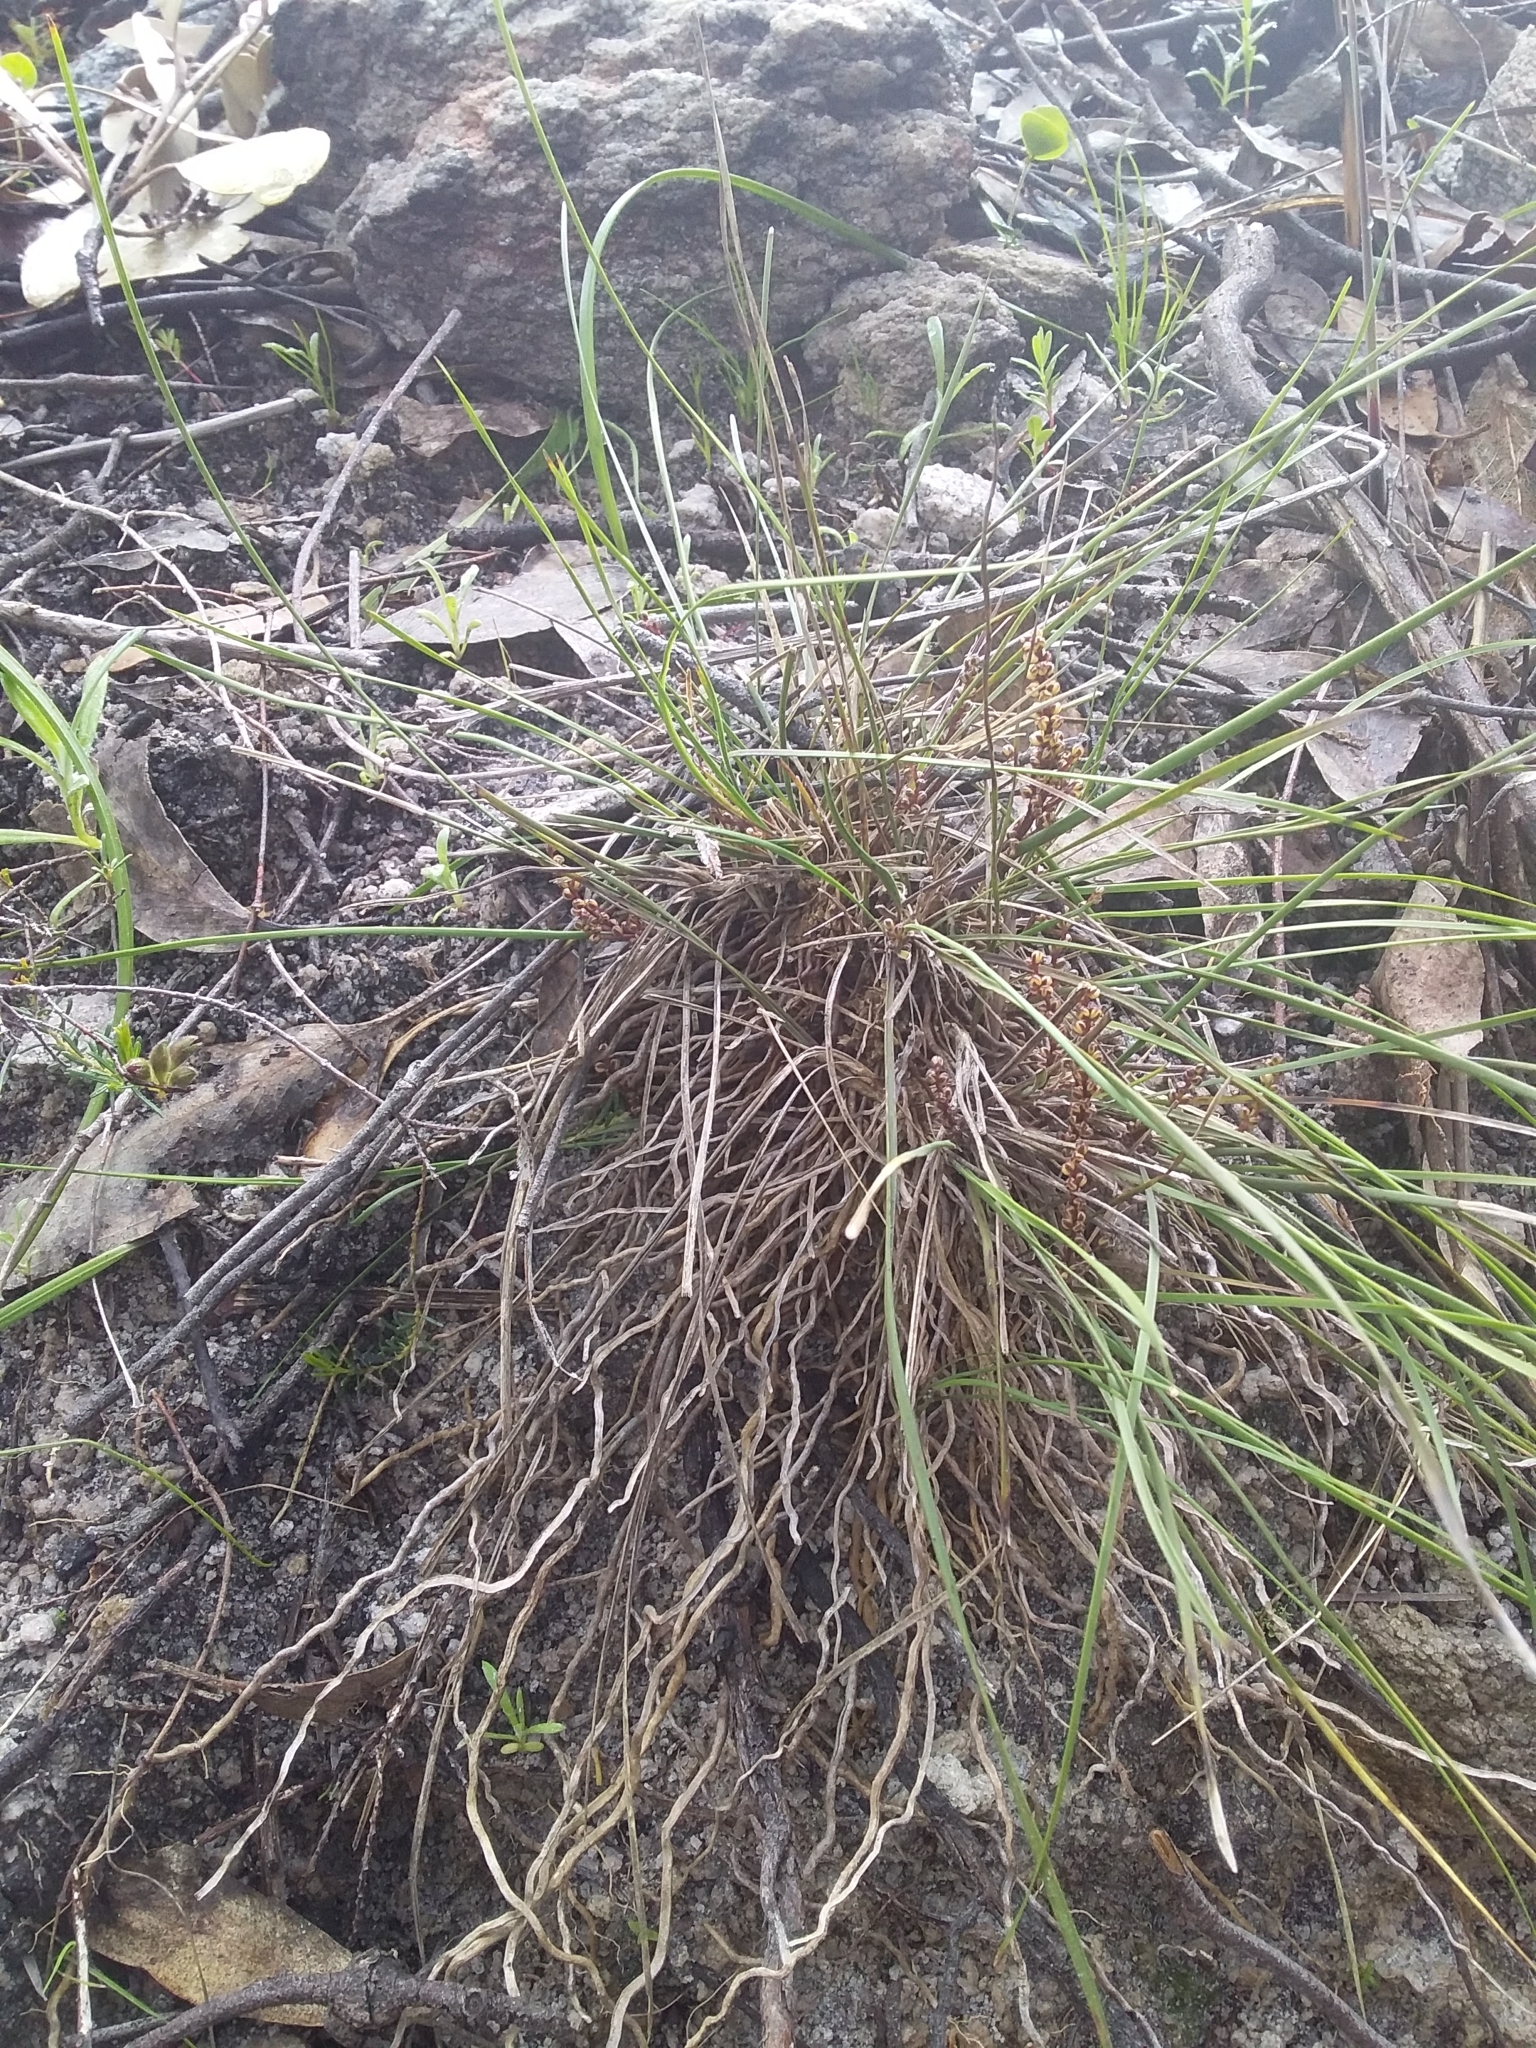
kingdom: Plantae
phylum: Tracheophyta
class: Liliopsida
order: Asparagales
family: Asparagaceae
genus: Lomandra
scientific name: Lomandra sororia
